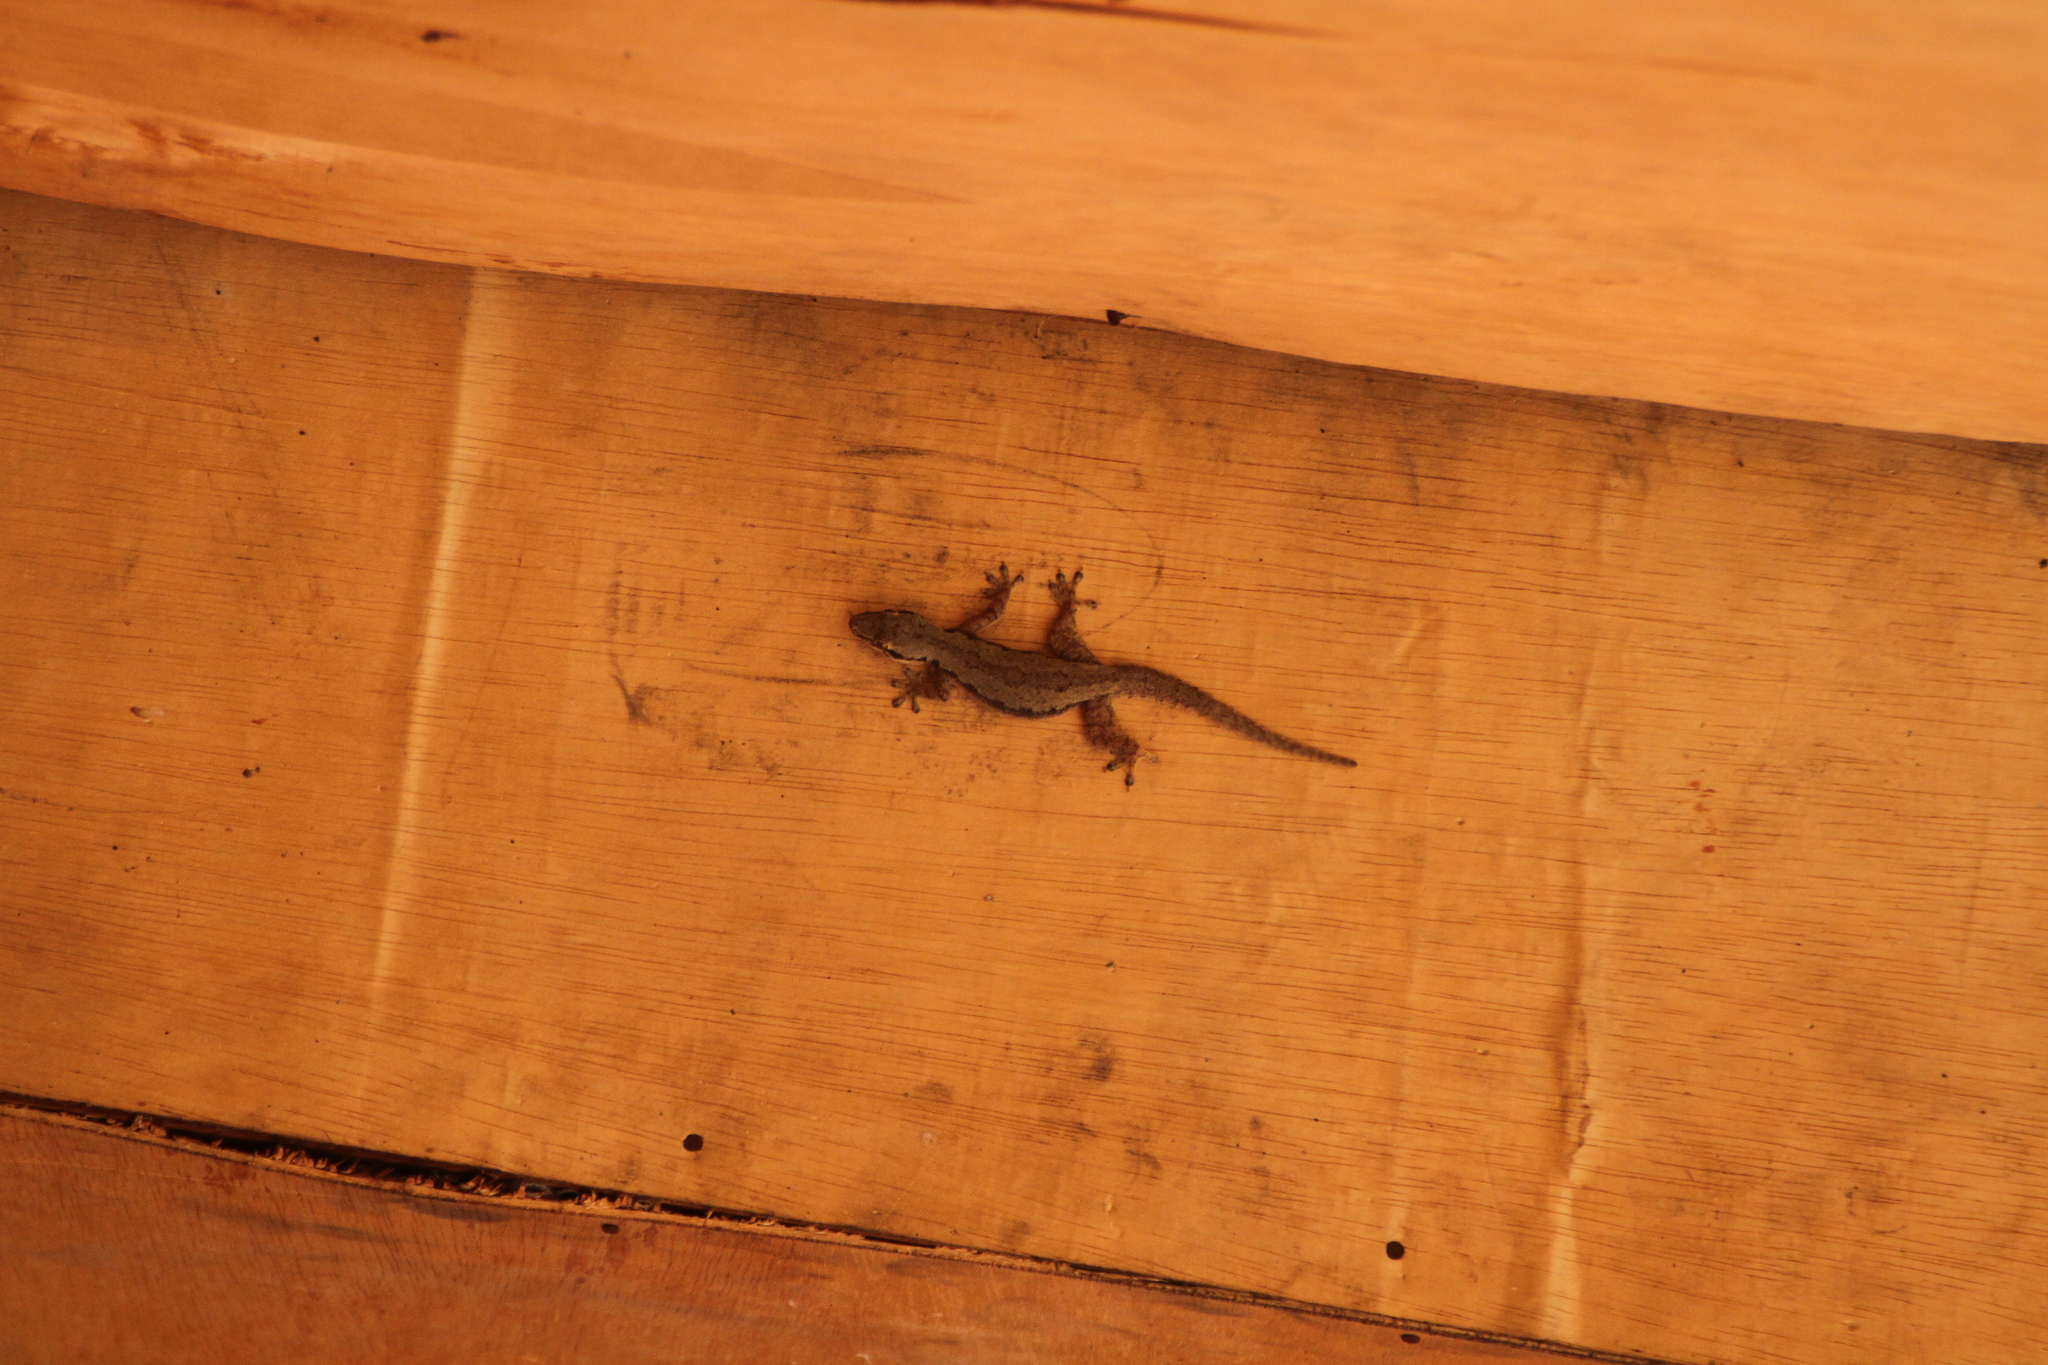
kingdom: Animalia
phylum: Chordata
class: Squamata
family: Gekkonidae
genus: Hemidactylus
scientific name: Hemidactylus platyurus
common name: Flat-tailed house gecko
